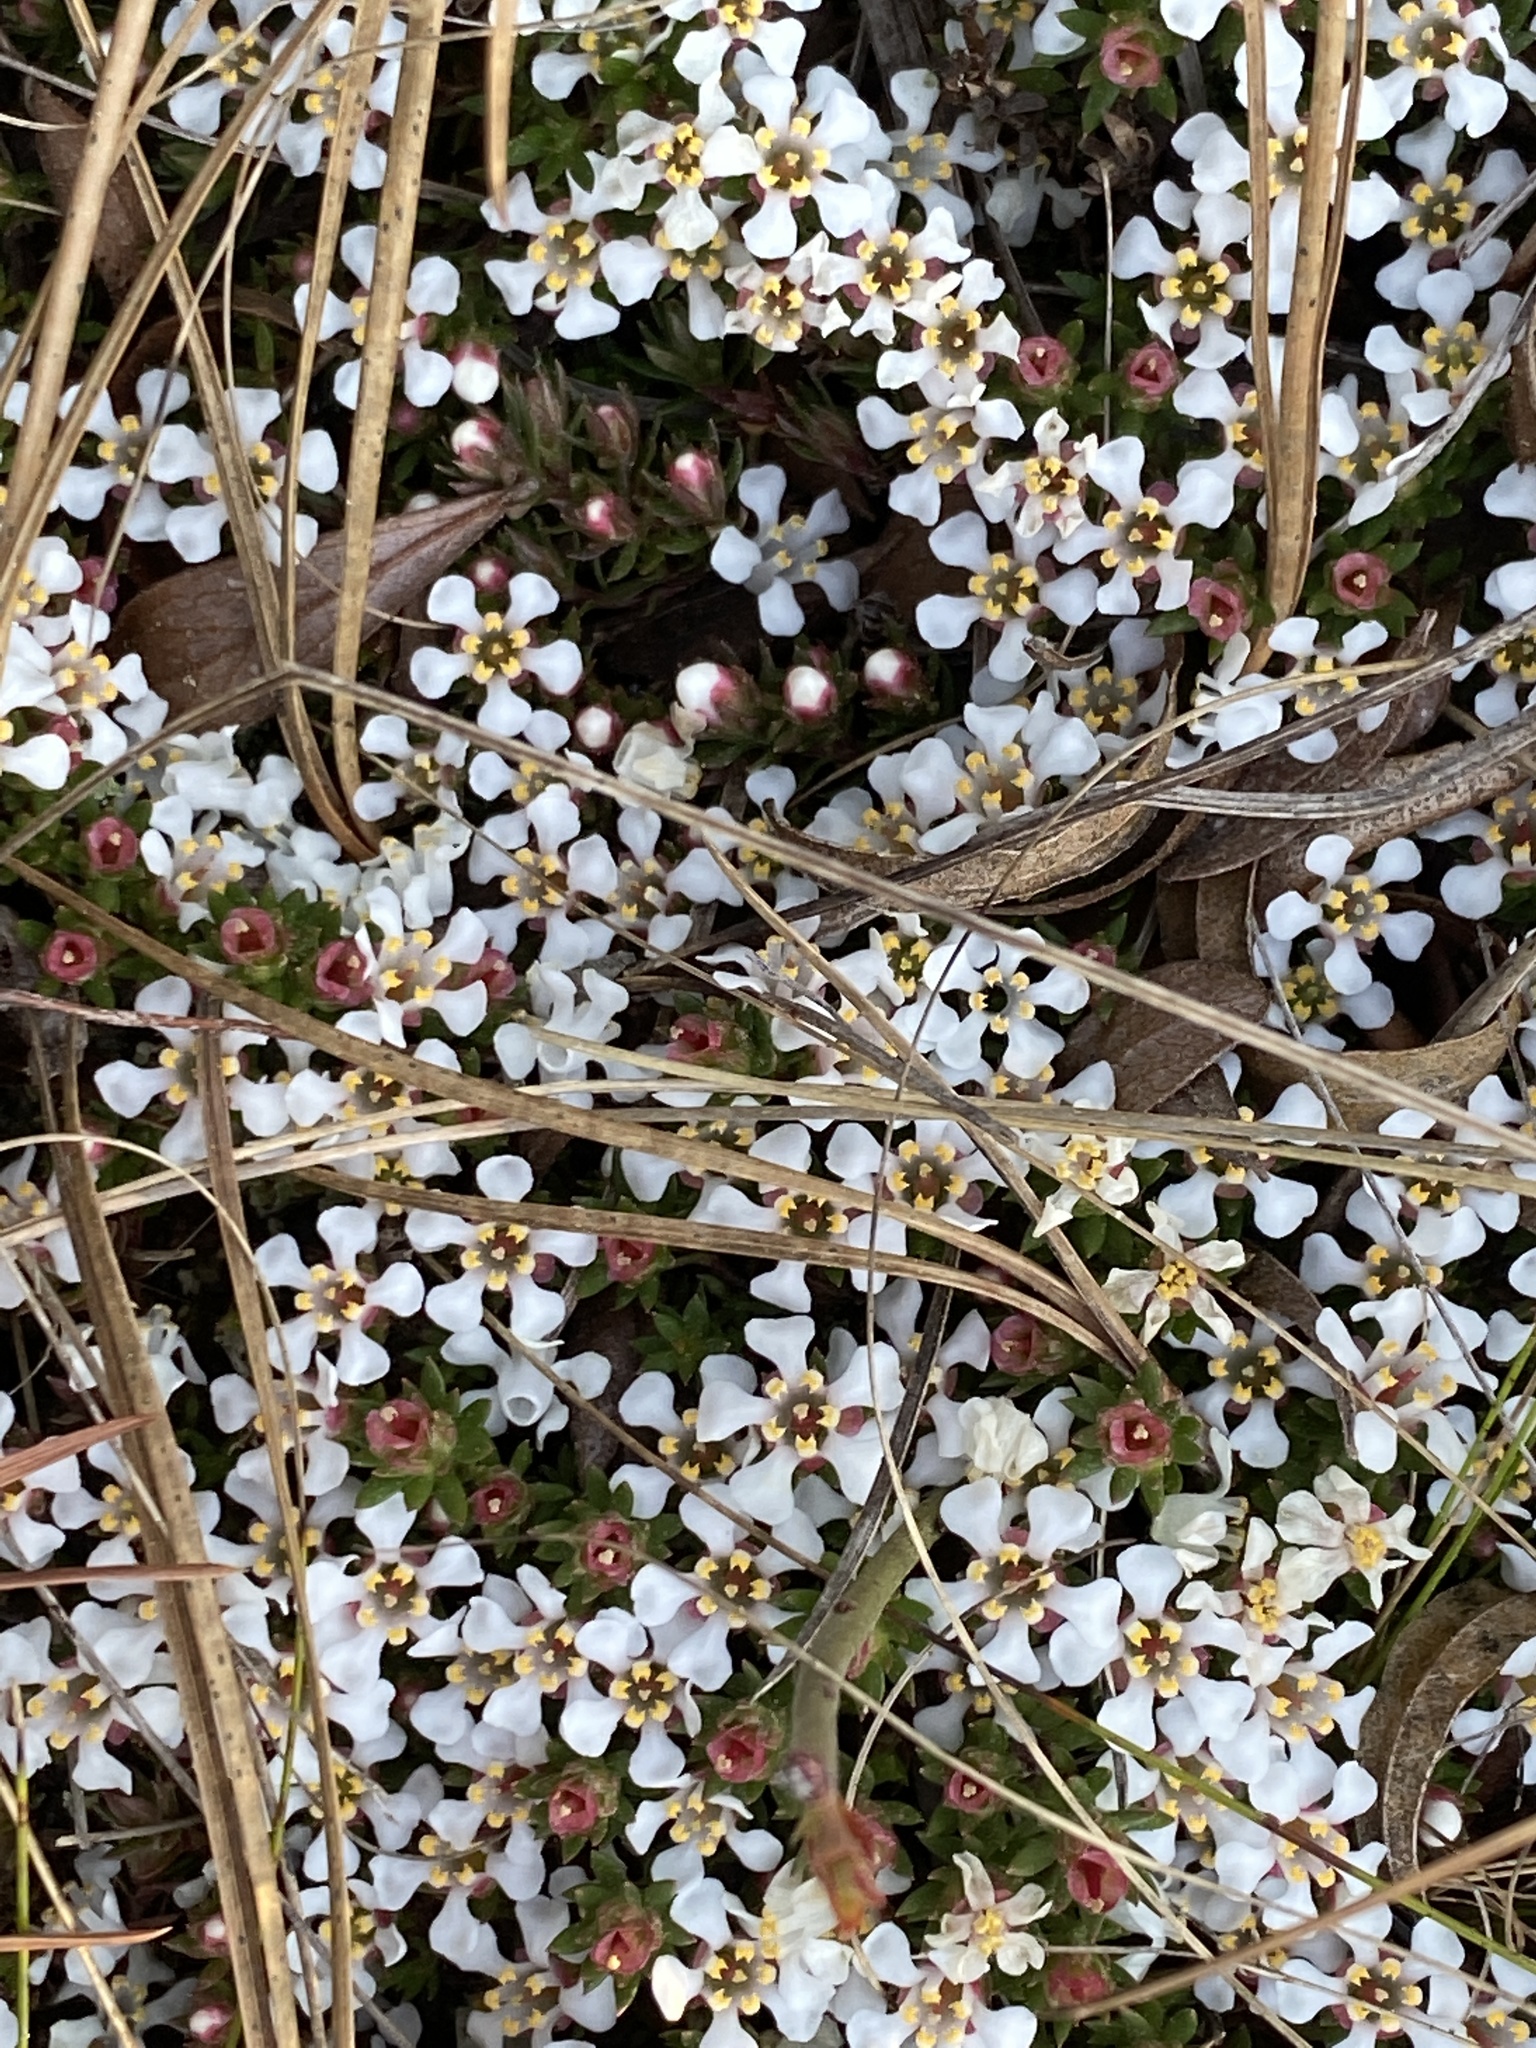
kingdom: Plantae
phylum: Tracheophyta
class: Magnoliopsida
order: Ericales
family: Diapensiaceae
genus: Pyxidanthera
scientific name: Pyxidanthera barbulata
